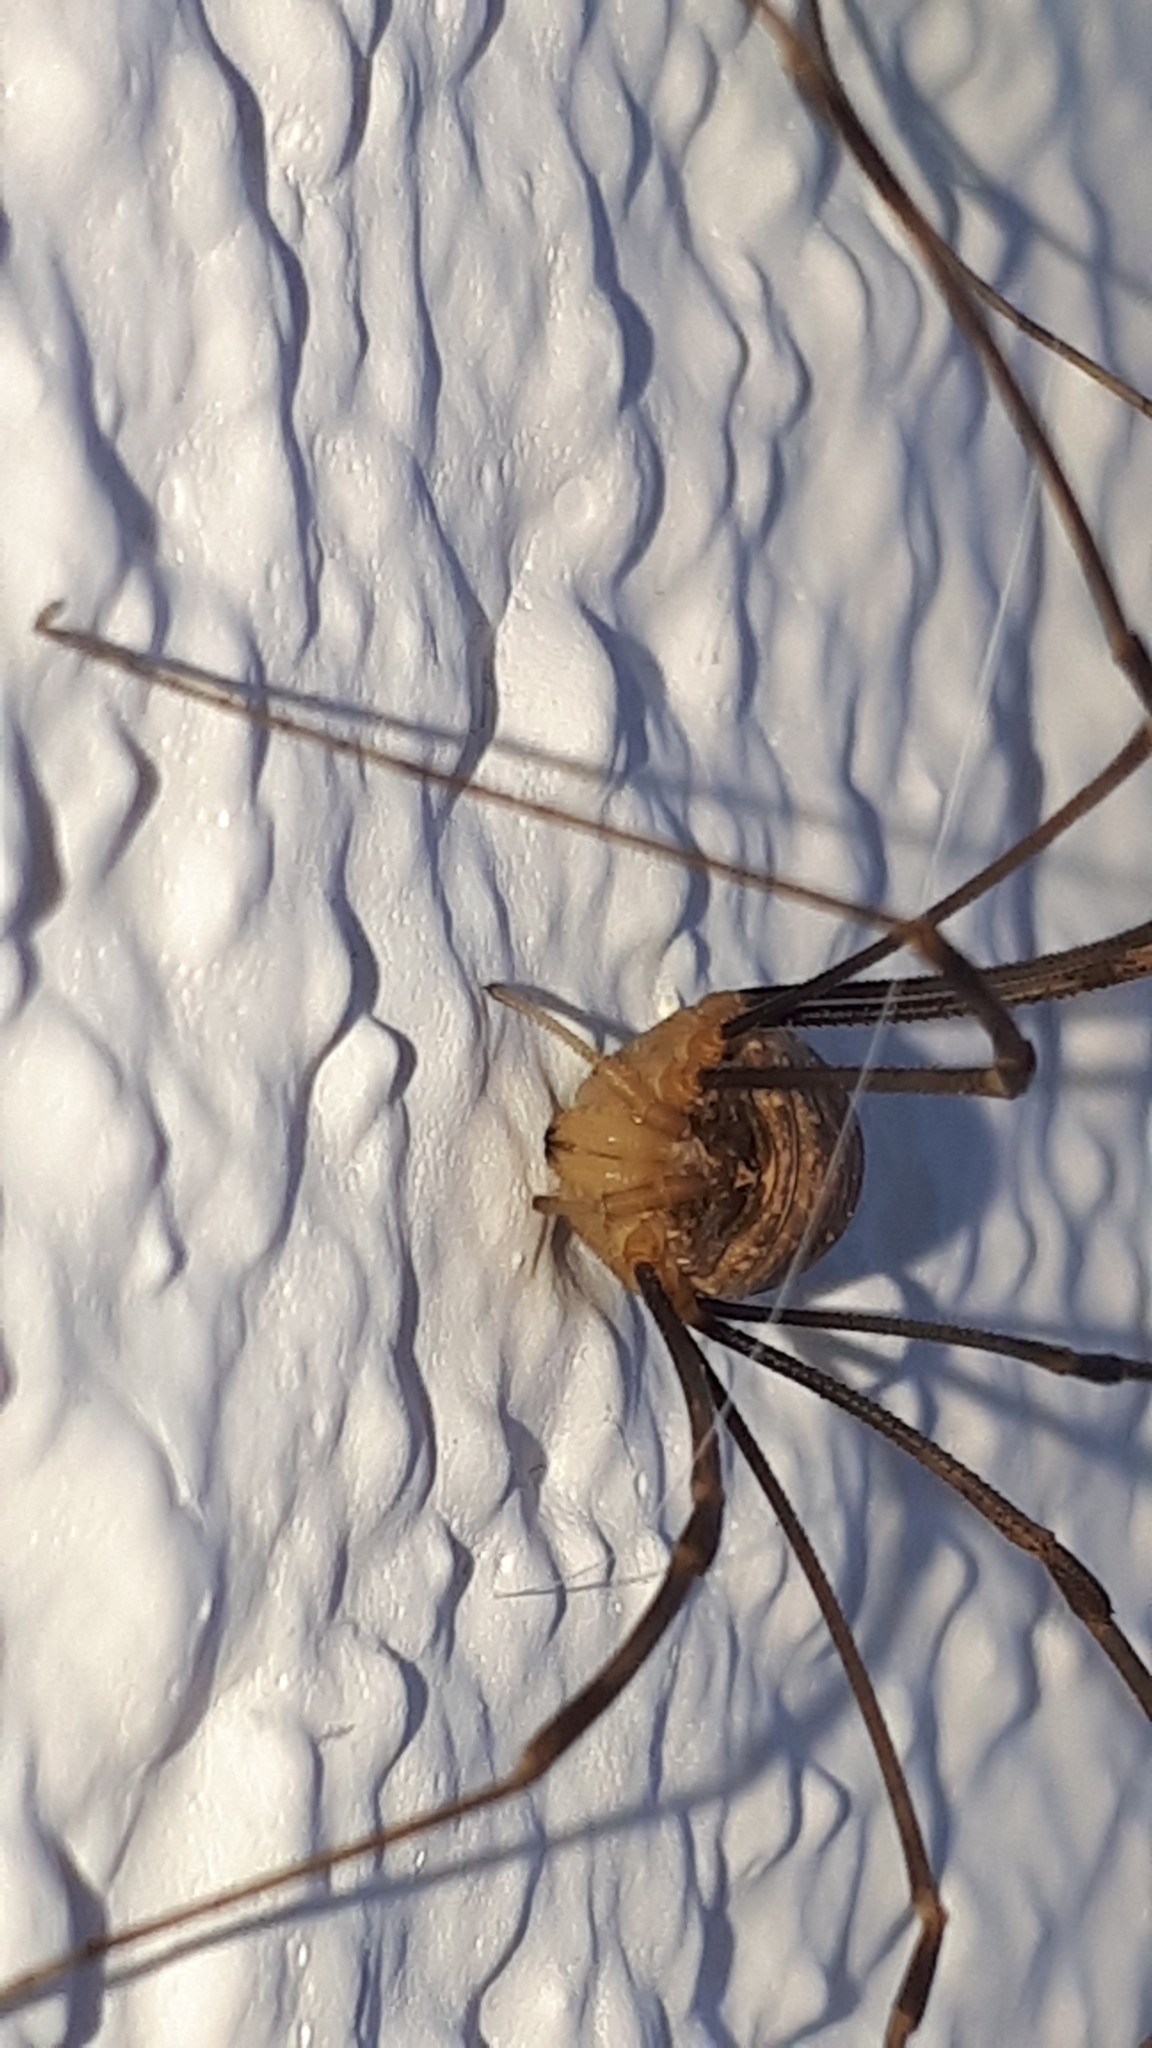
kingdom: Animalia
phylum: Arthropoda
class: Arachnida
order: Opiliones
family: Phalangiidae
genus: Opilio
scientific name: Opilio canestrinii
